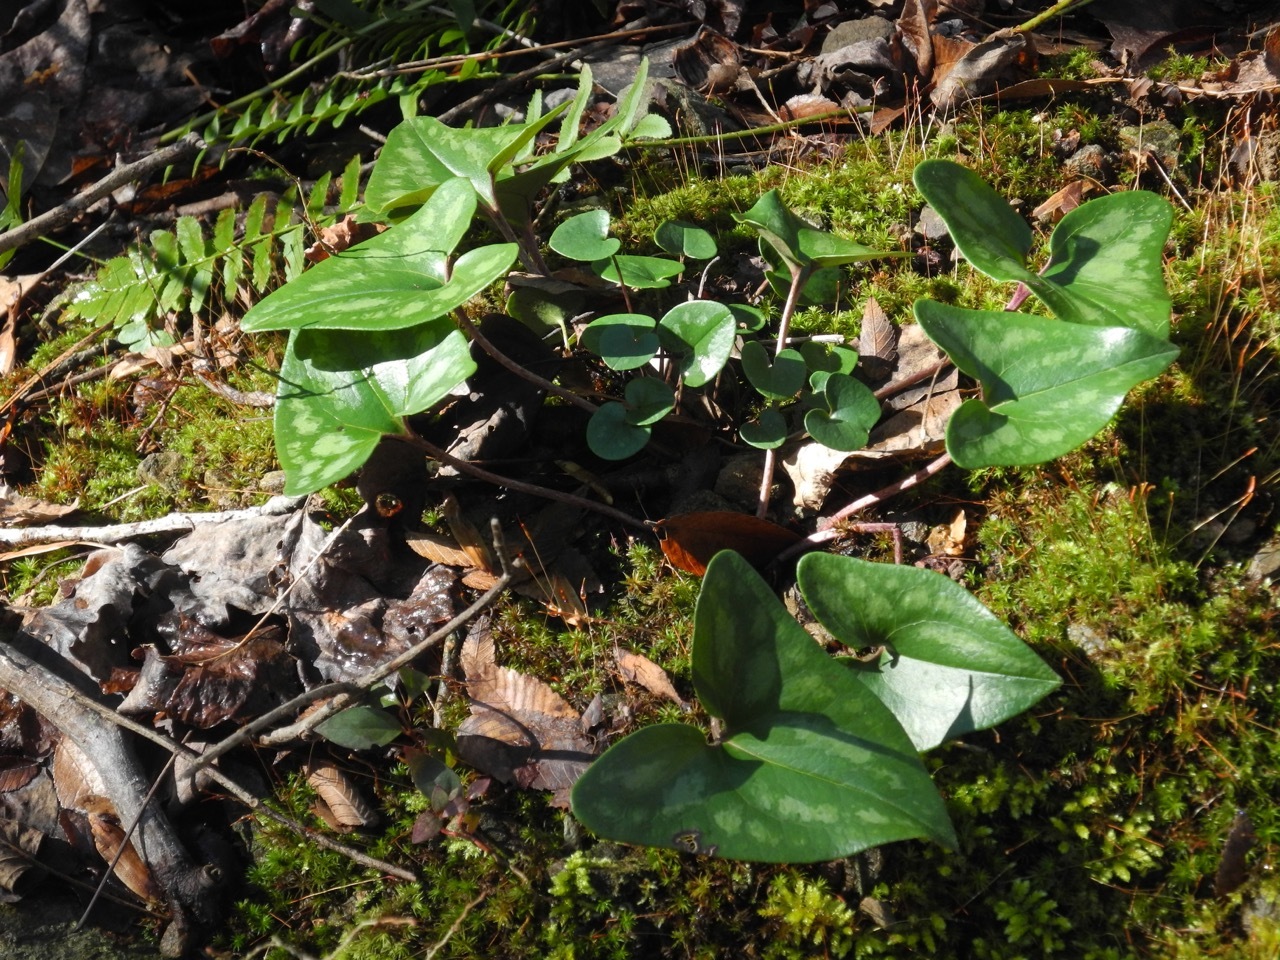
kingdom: Plantae
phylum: Tracheophyta
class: Magnoliopsida
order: Piperales
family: Aristolochiaceae
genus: Hexastylis
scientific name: Hexastylis arifolia
